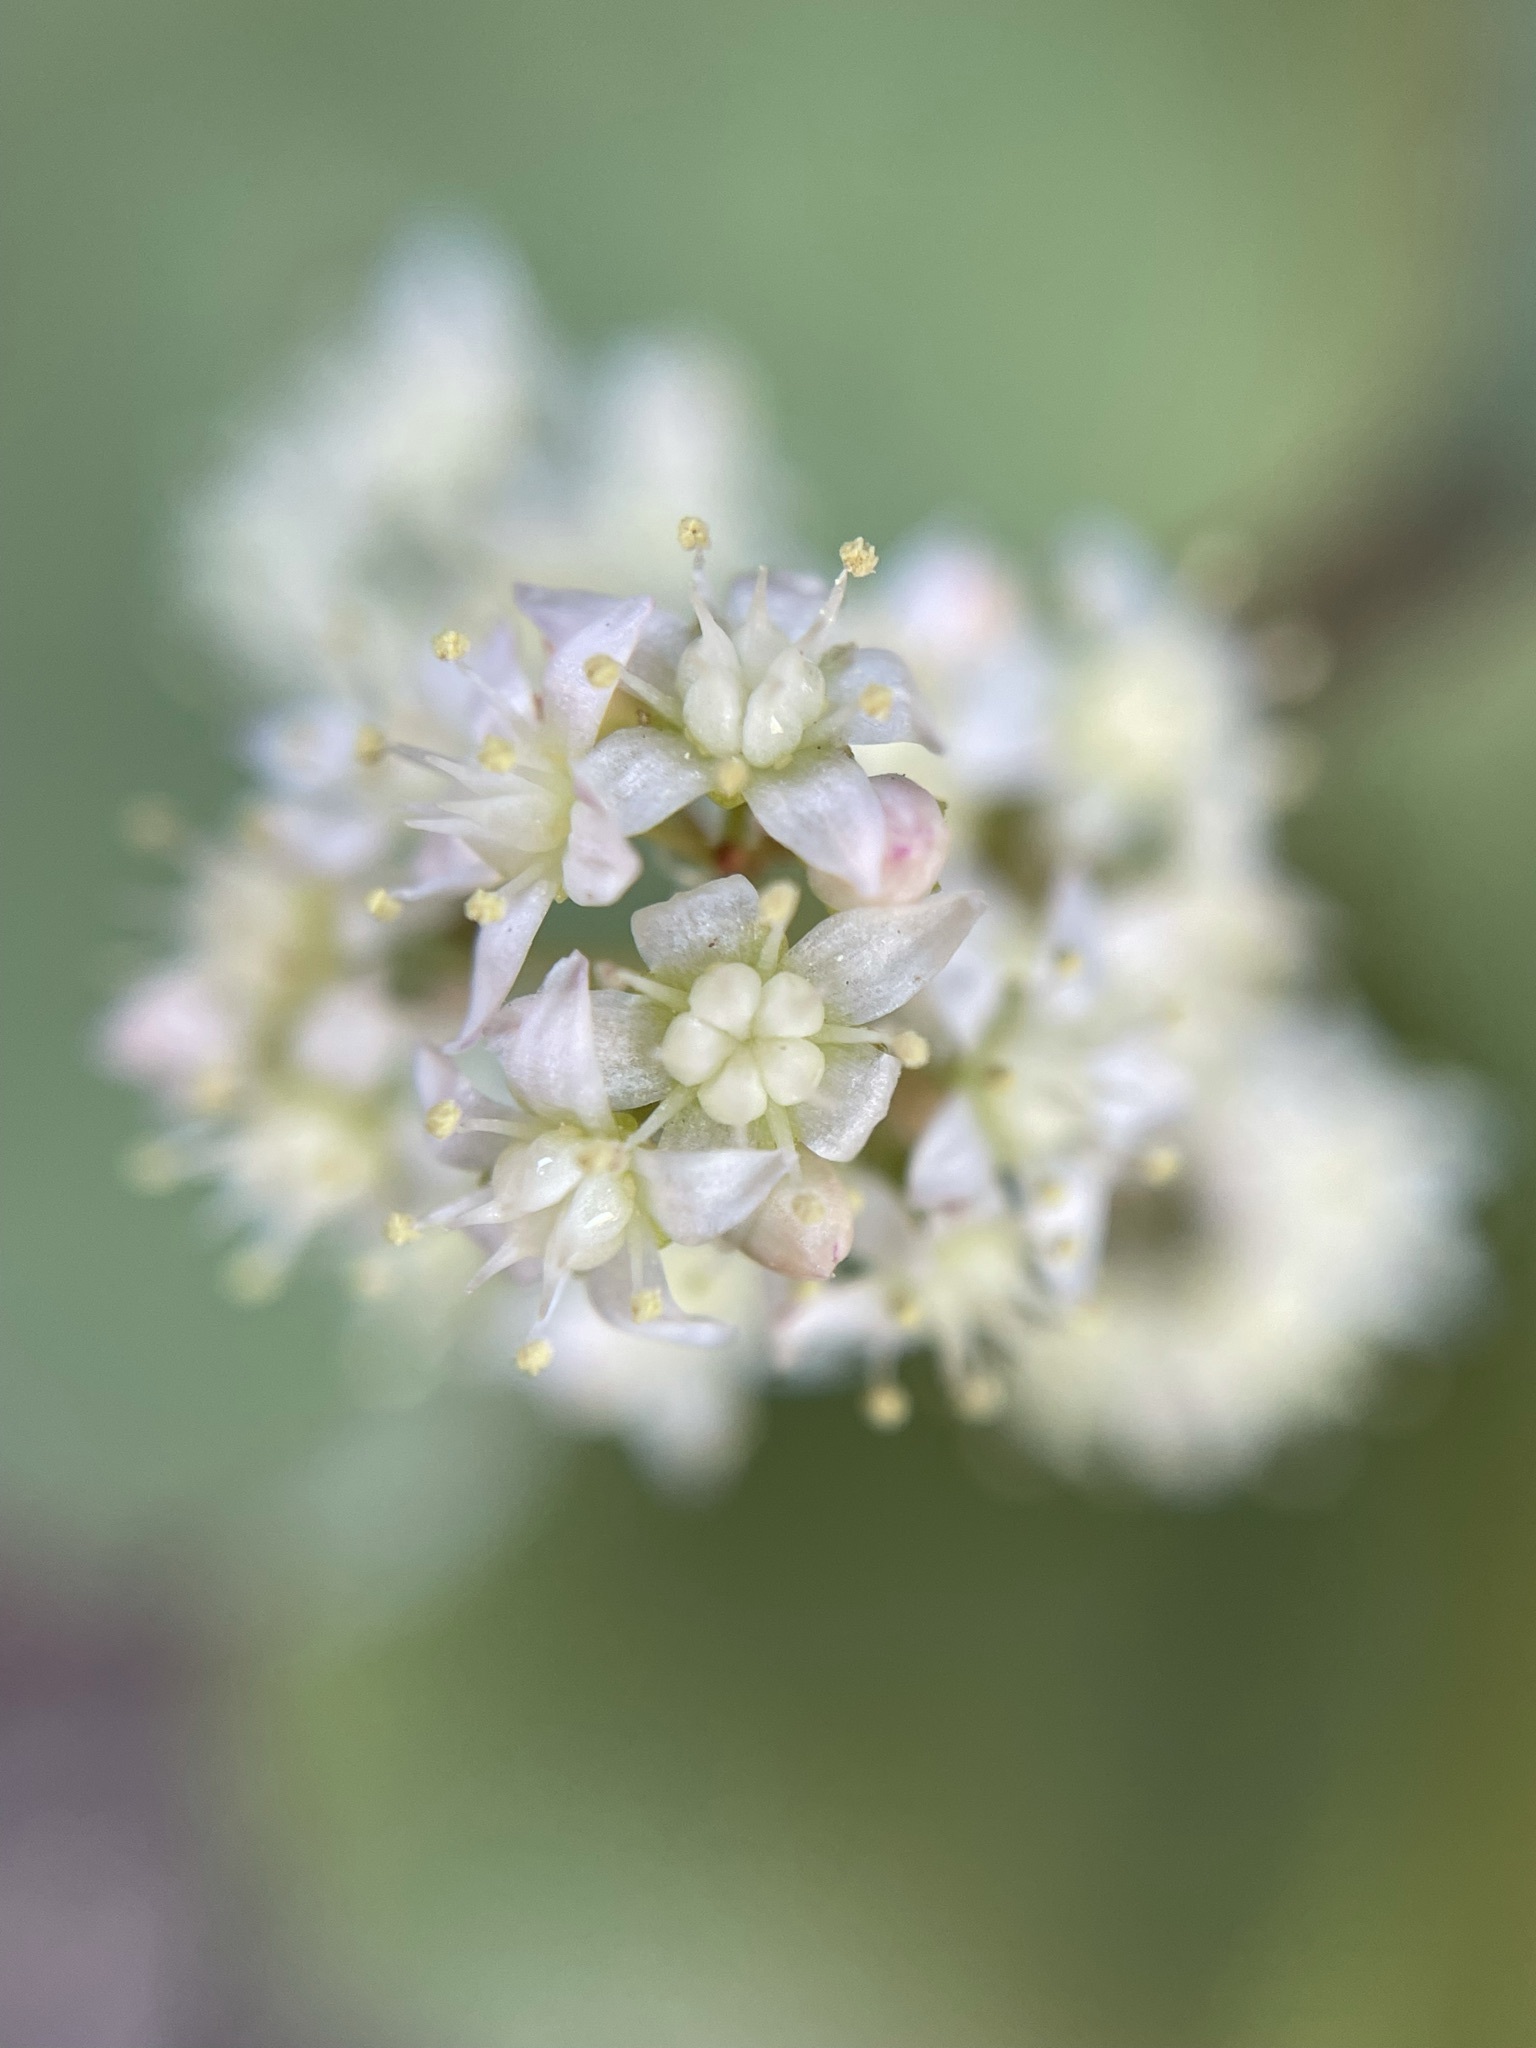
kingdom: Plantae
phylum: Tracheophyta
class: Magnoliopsida
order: Saxifragales
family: Crassulaceae
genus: Crassula
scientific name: Crassula umbella
